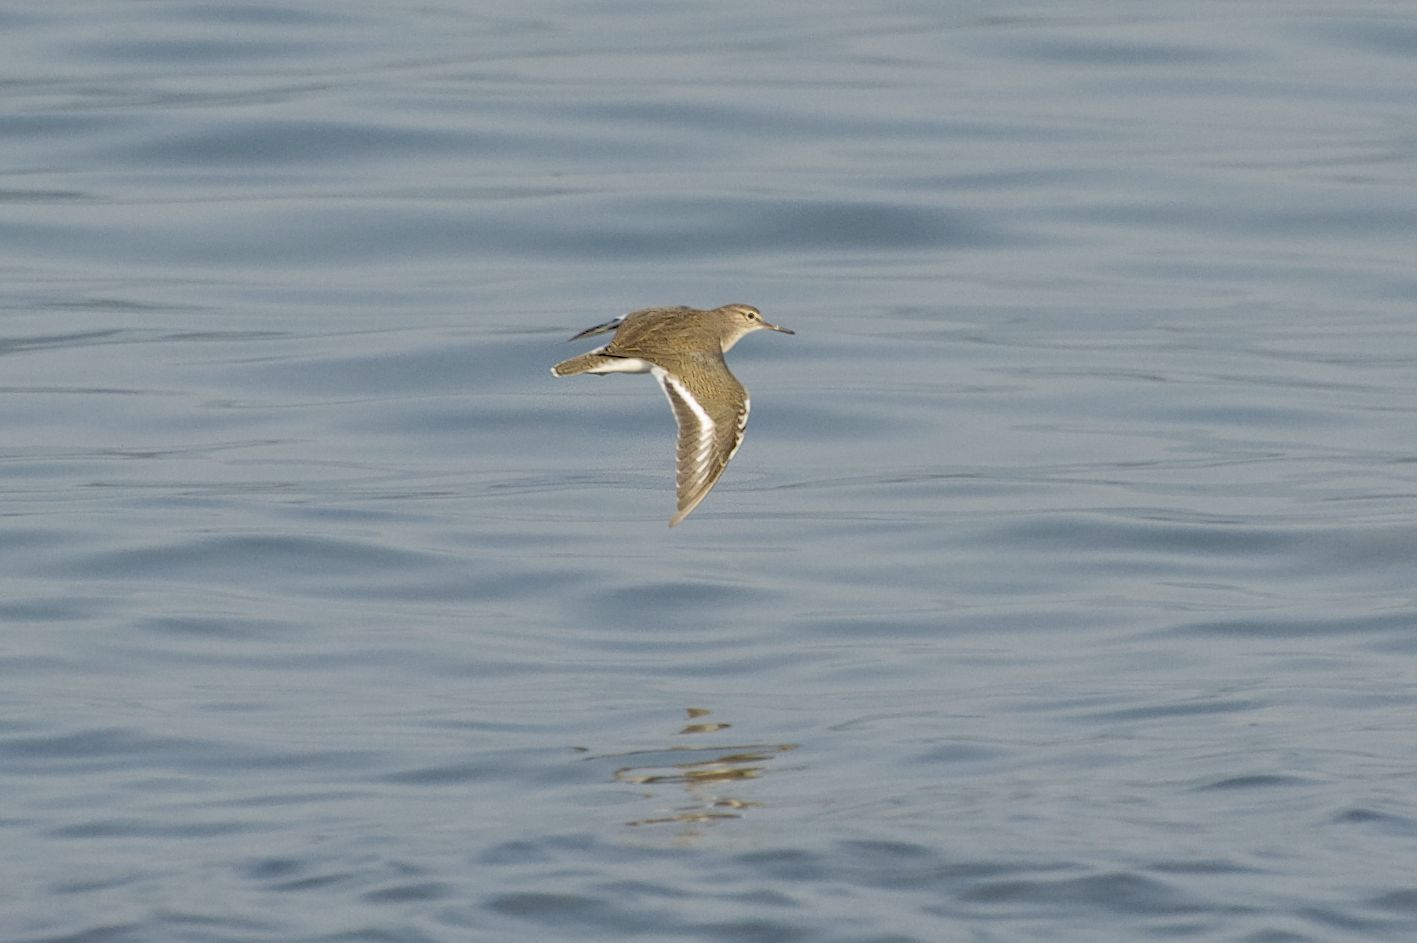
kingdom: Animalia
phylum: Chordata
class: Aves
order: Charadriiformes
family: Scolopacidae
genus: Actitis
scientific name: Actitis hypoleucos
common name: Common sandpiper
